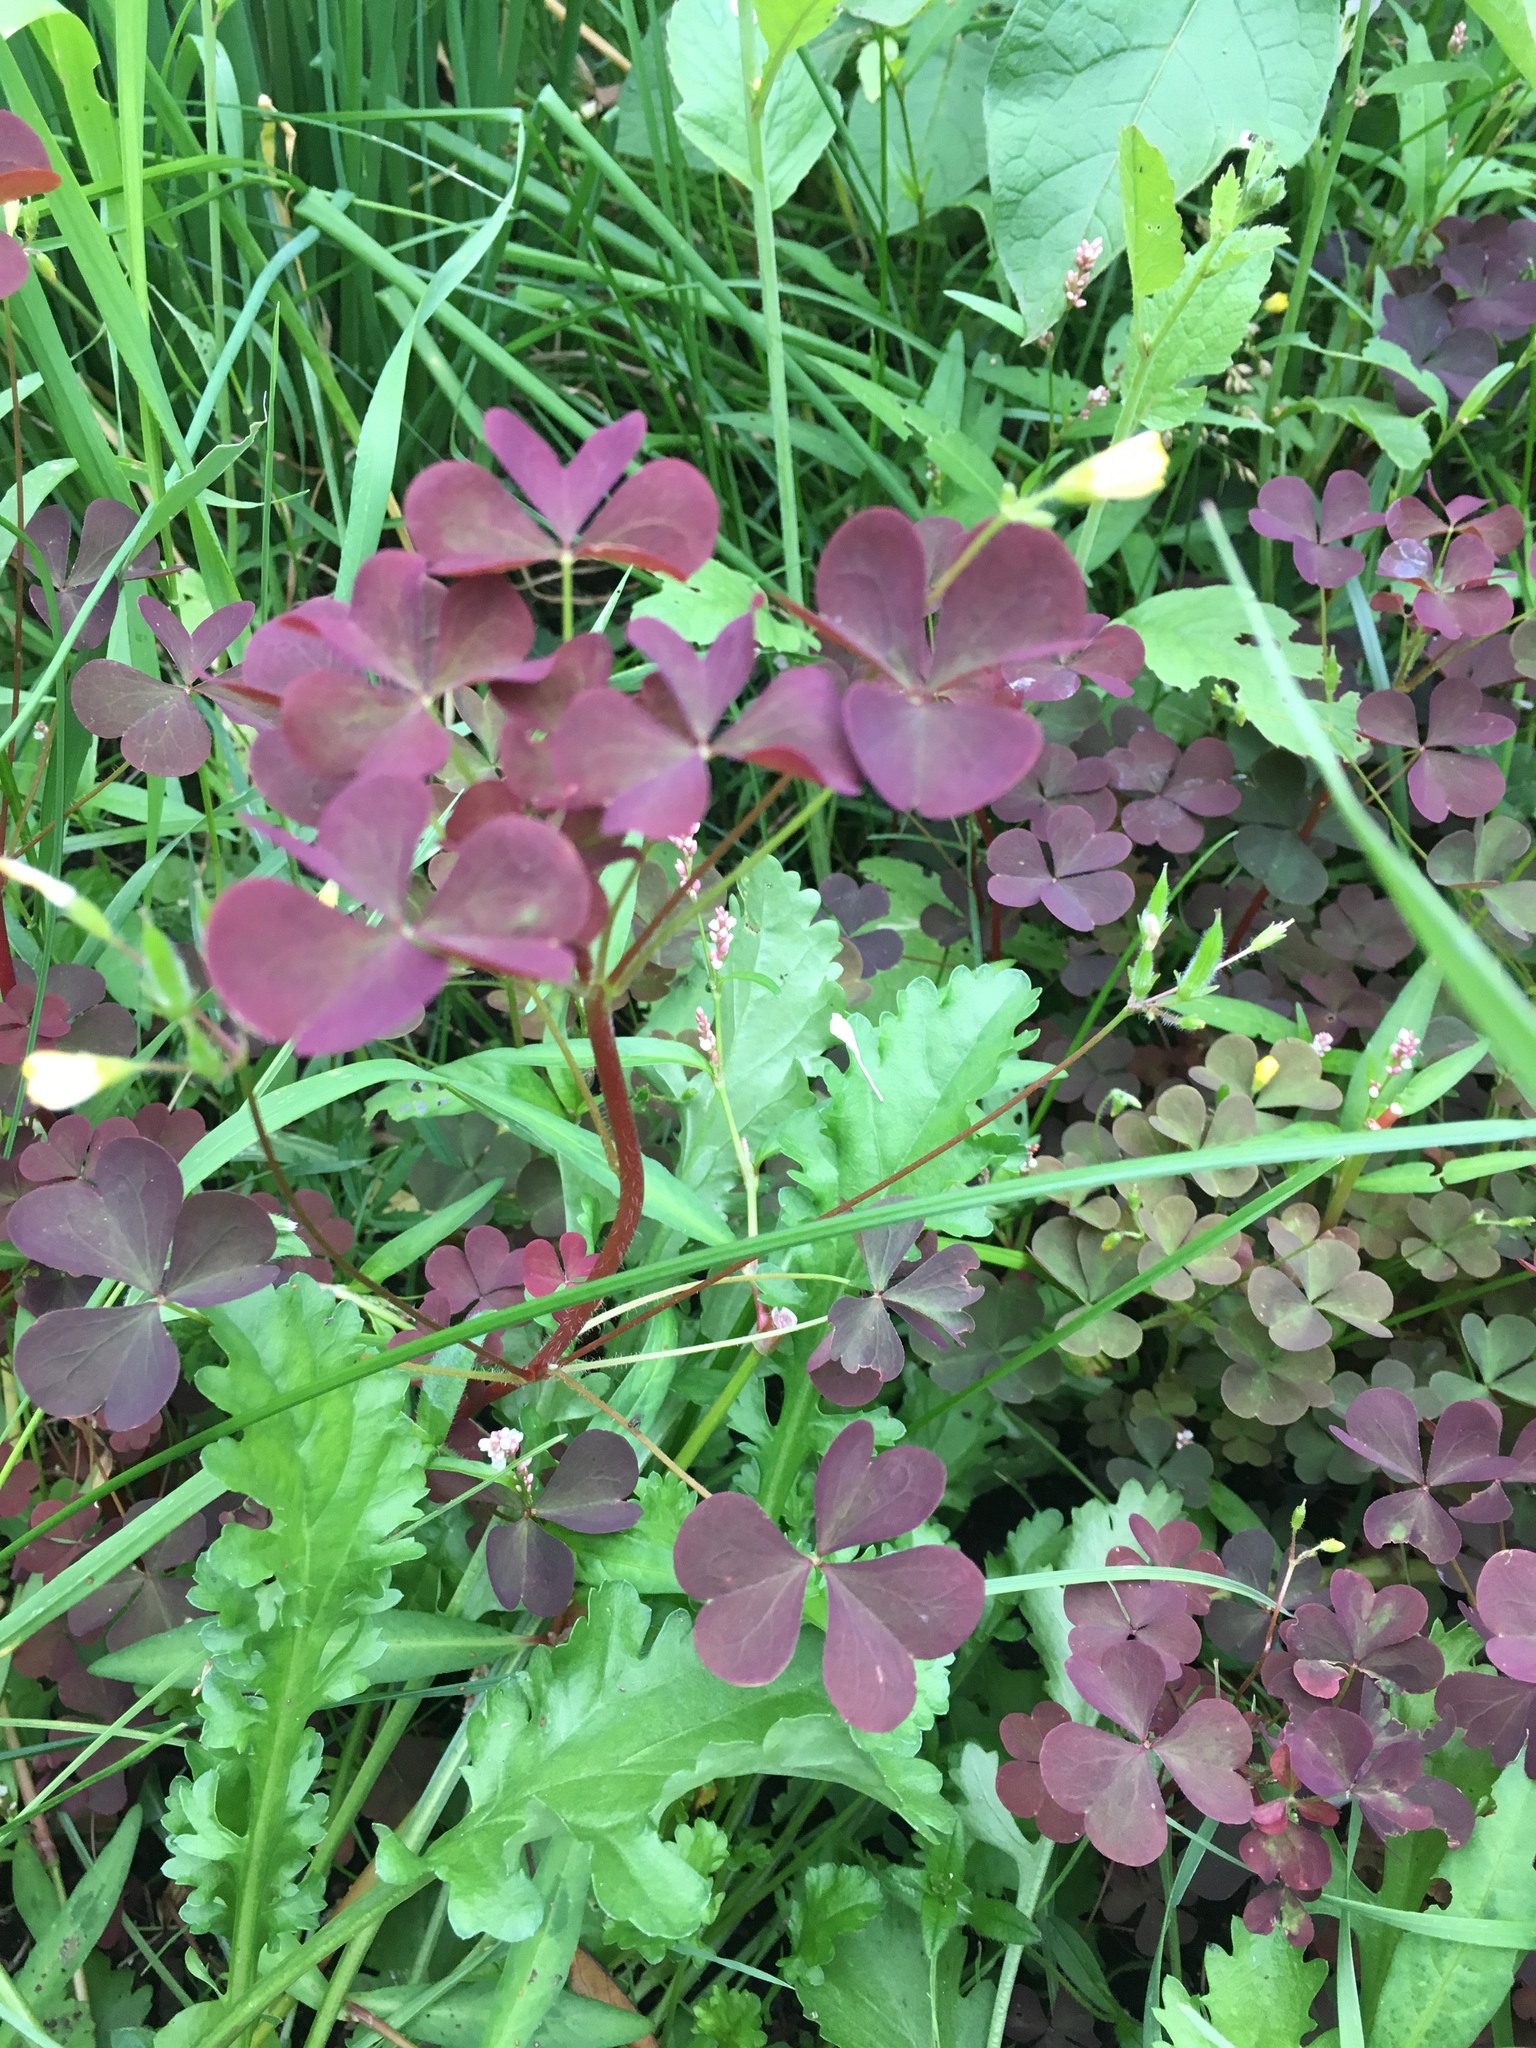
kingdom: Plantae
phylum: Tracheophyta
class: Magnoliopsida
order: Oxalidales
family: Oxalidaceae
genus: Oxalis
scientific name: Oxalis stricta
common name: Upright yellow-sorrel
